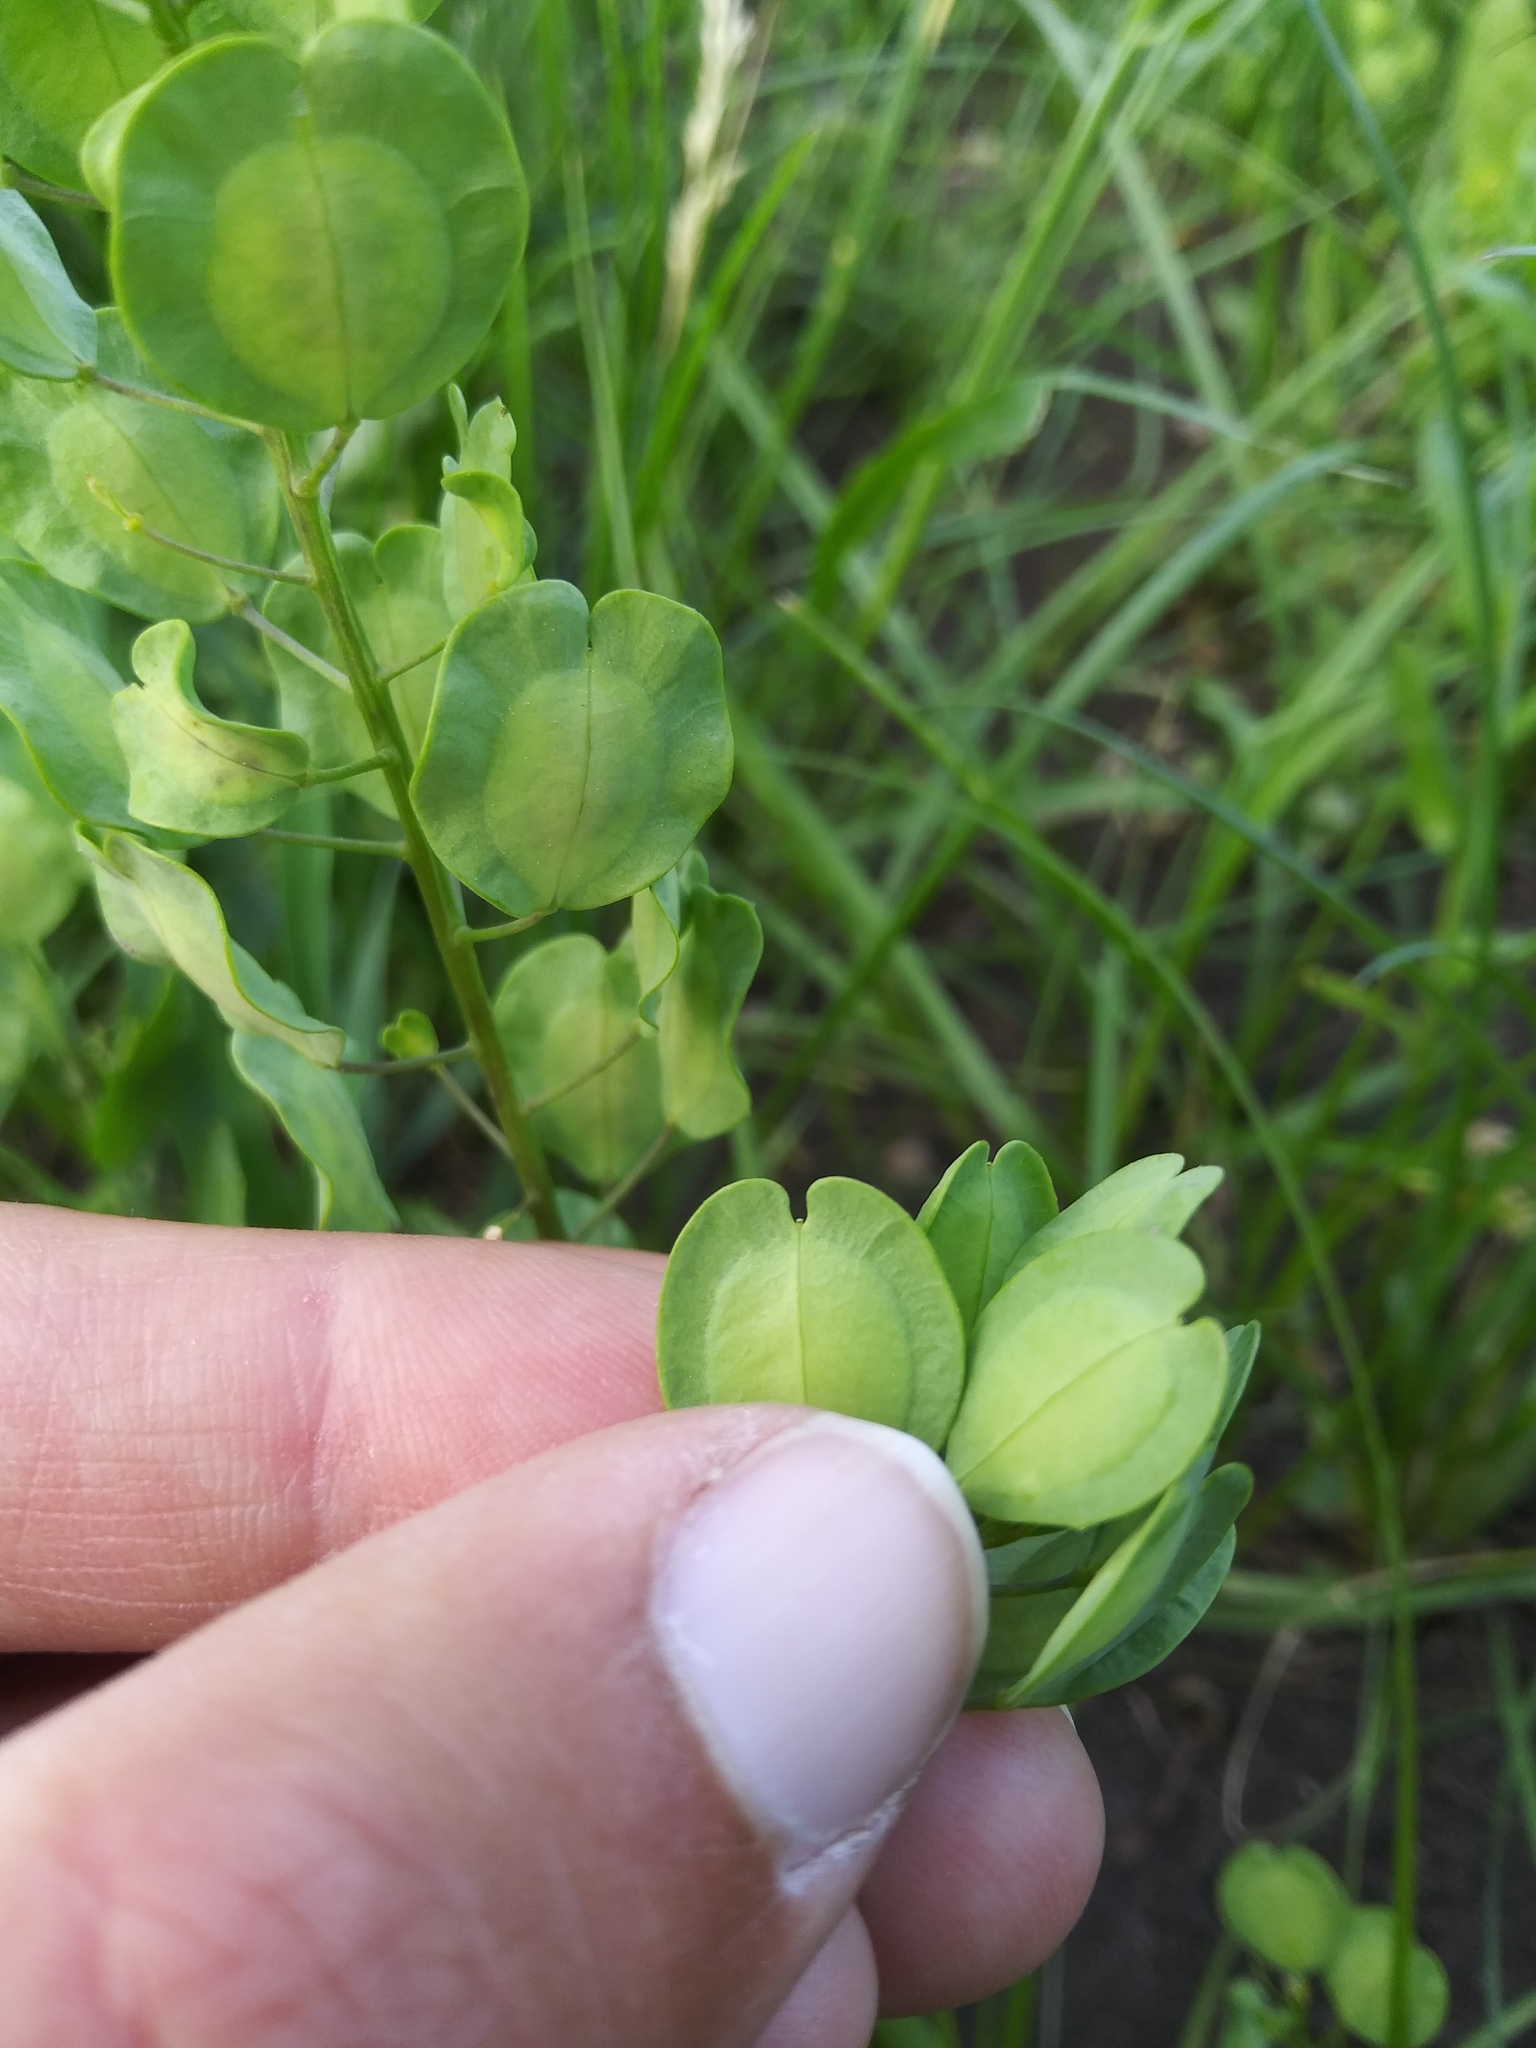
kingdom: Plantae
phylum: Tracheophyta
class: Magnoliopsida
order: Brassicales
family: Brassicaceae
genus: Thlaspi
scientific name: Thlaspi arvense
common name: Field pennycress
